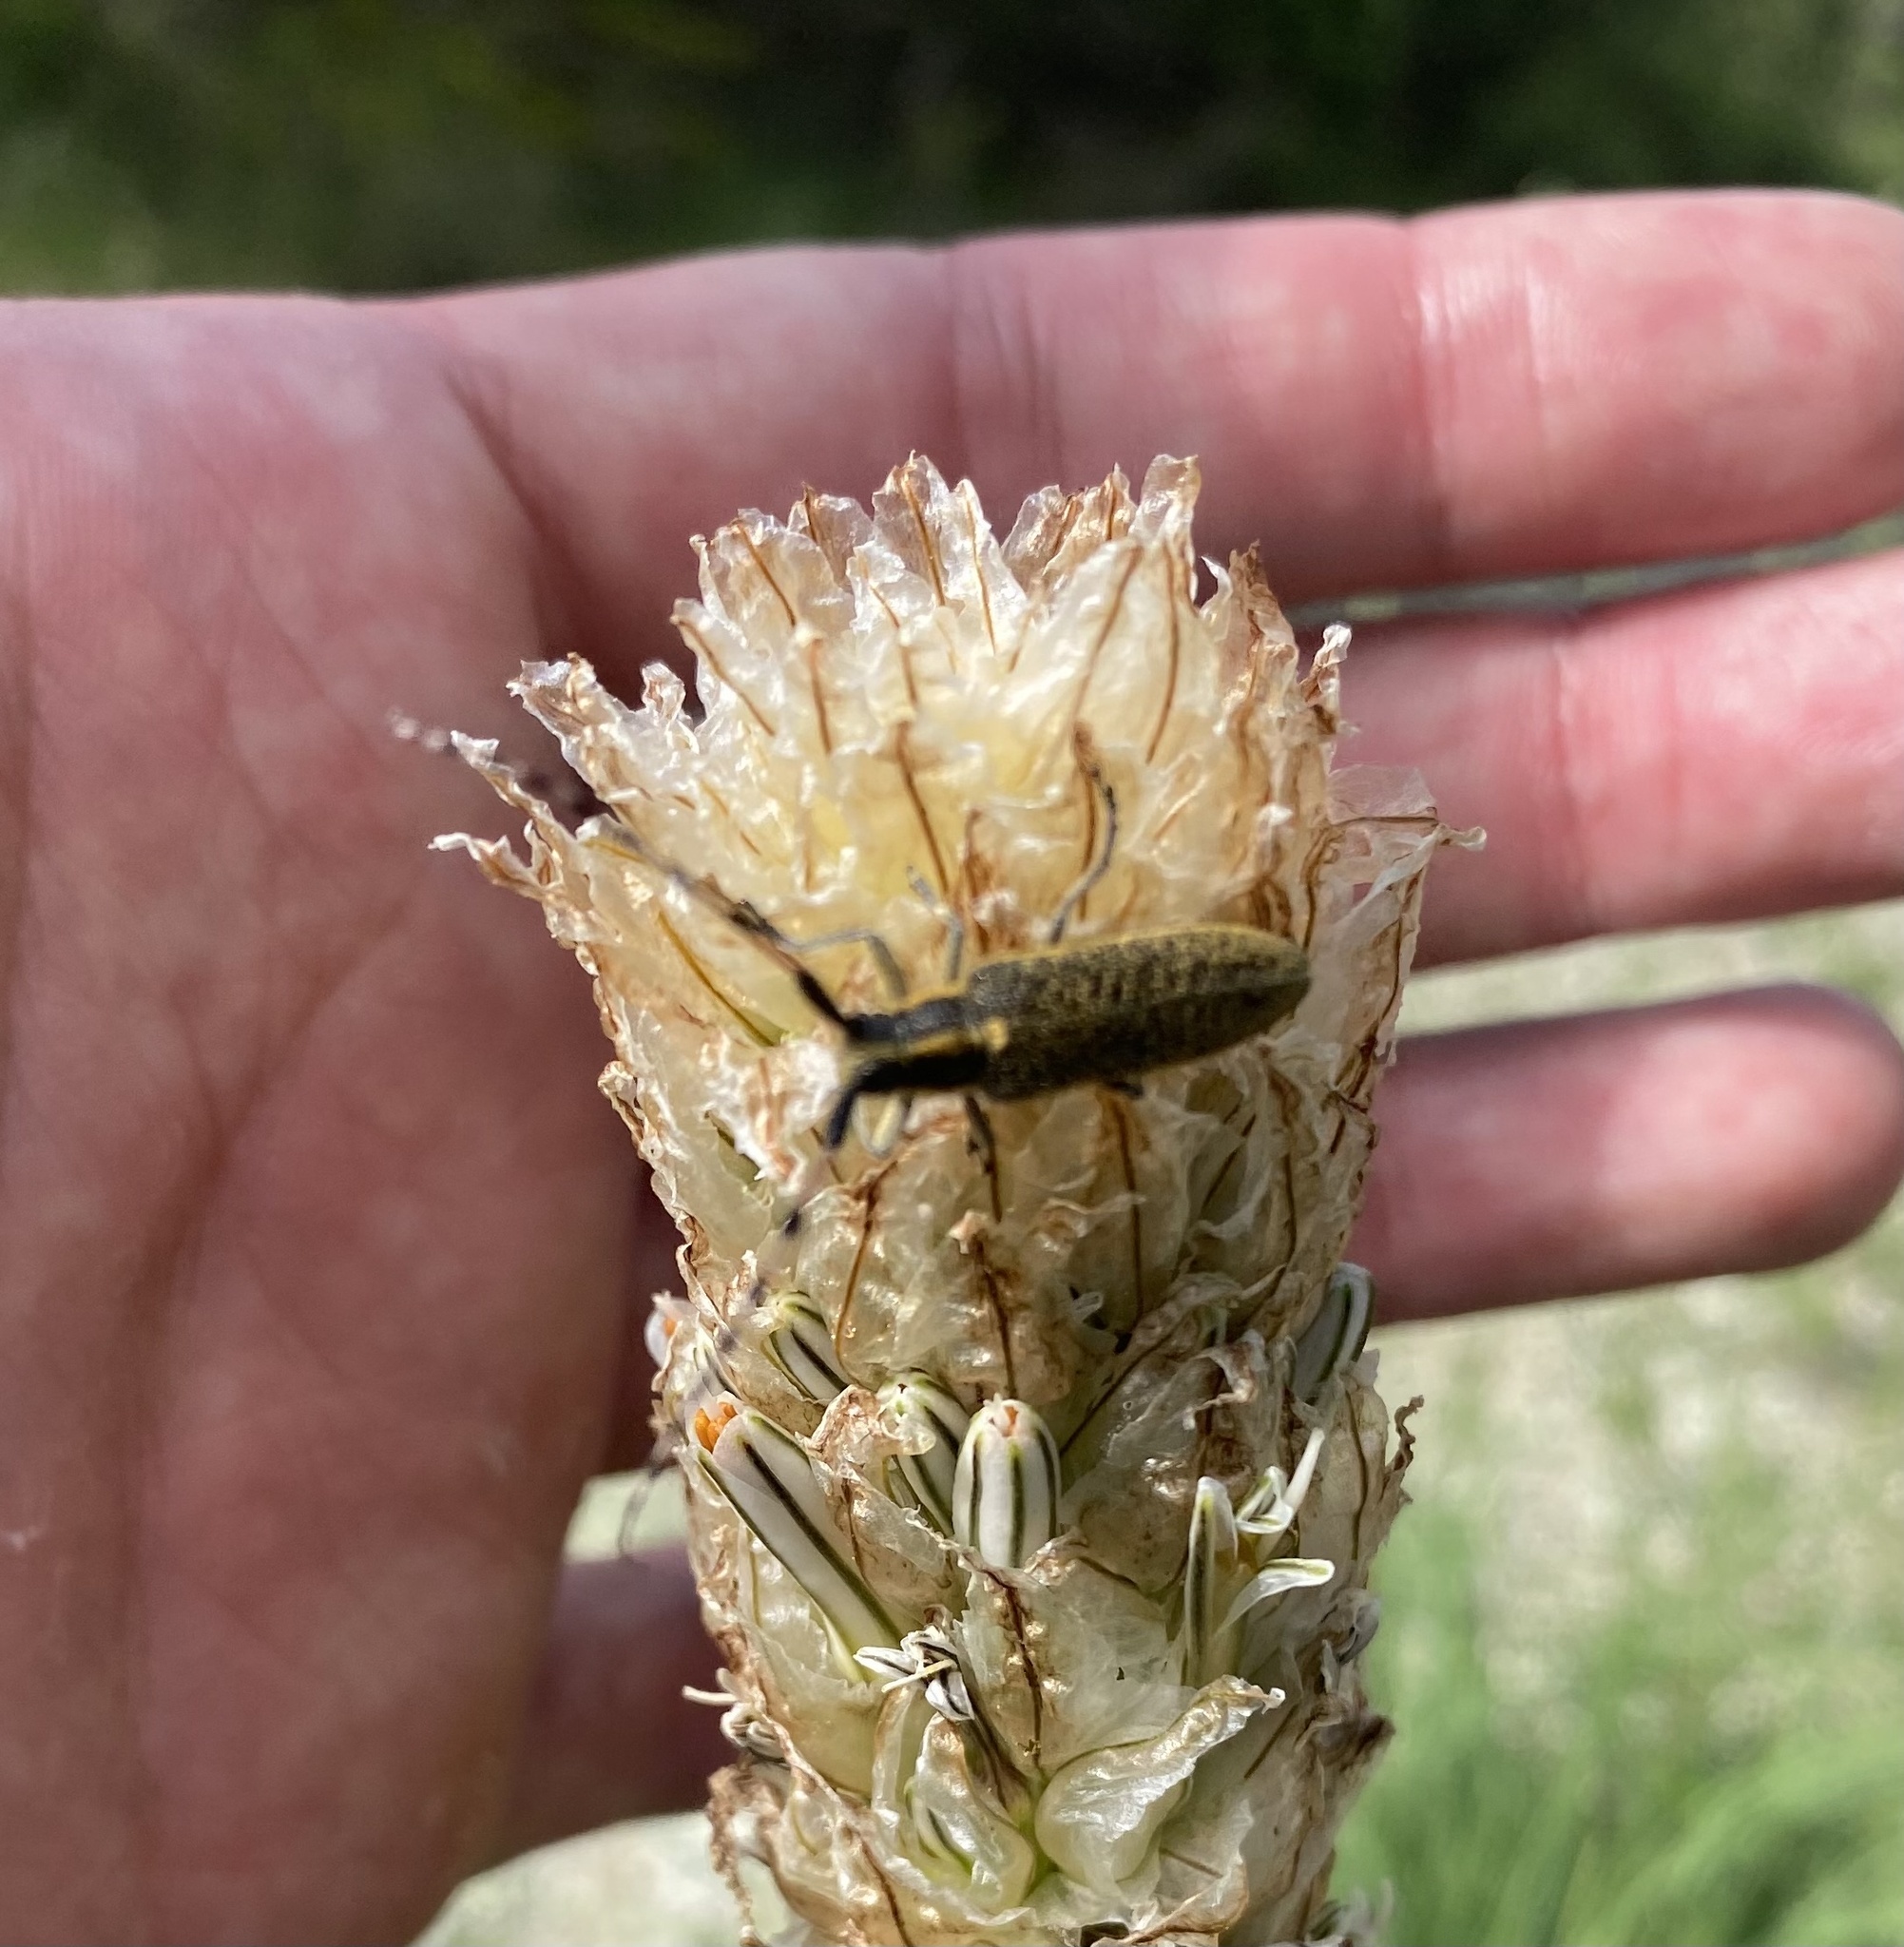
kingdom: Animalia
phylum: Arthropoda
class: Insecta
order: Coleoptera
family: Cerambycidae
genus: Agapanthia
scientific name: Agapanthia dahlii
